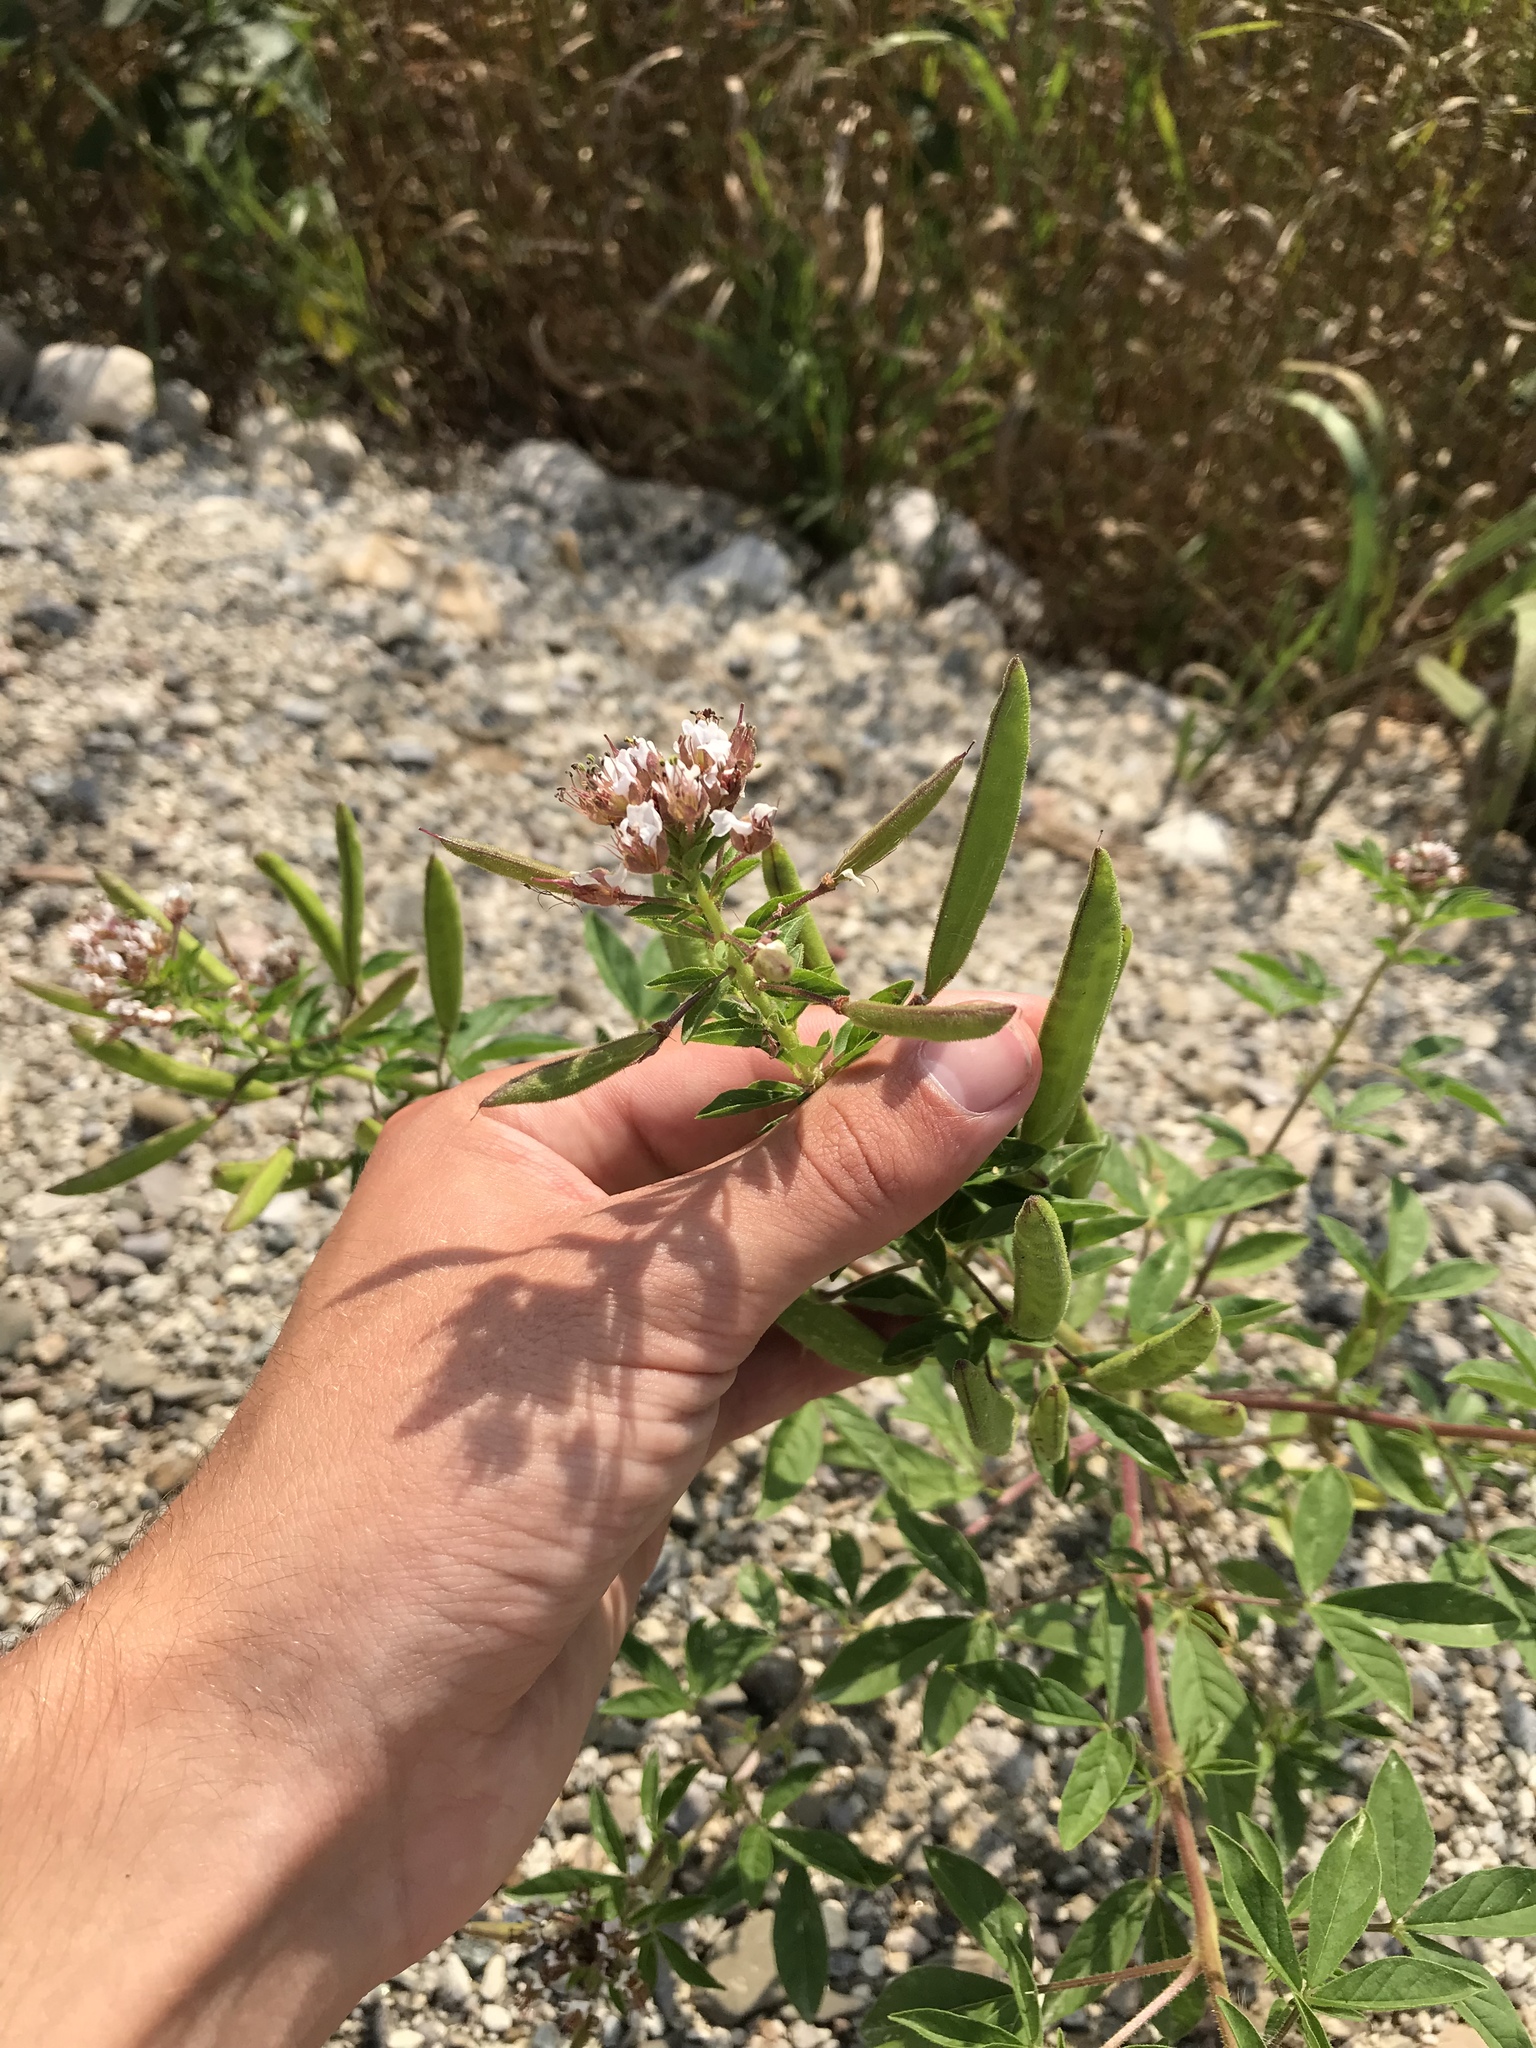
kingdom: Plantae
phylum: Tracheophyta
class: Magnoliopsida
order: Brassicales
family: Cleomaceae
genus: Polanisia
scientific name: Polanisia dodecandra
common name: Clammyweed
